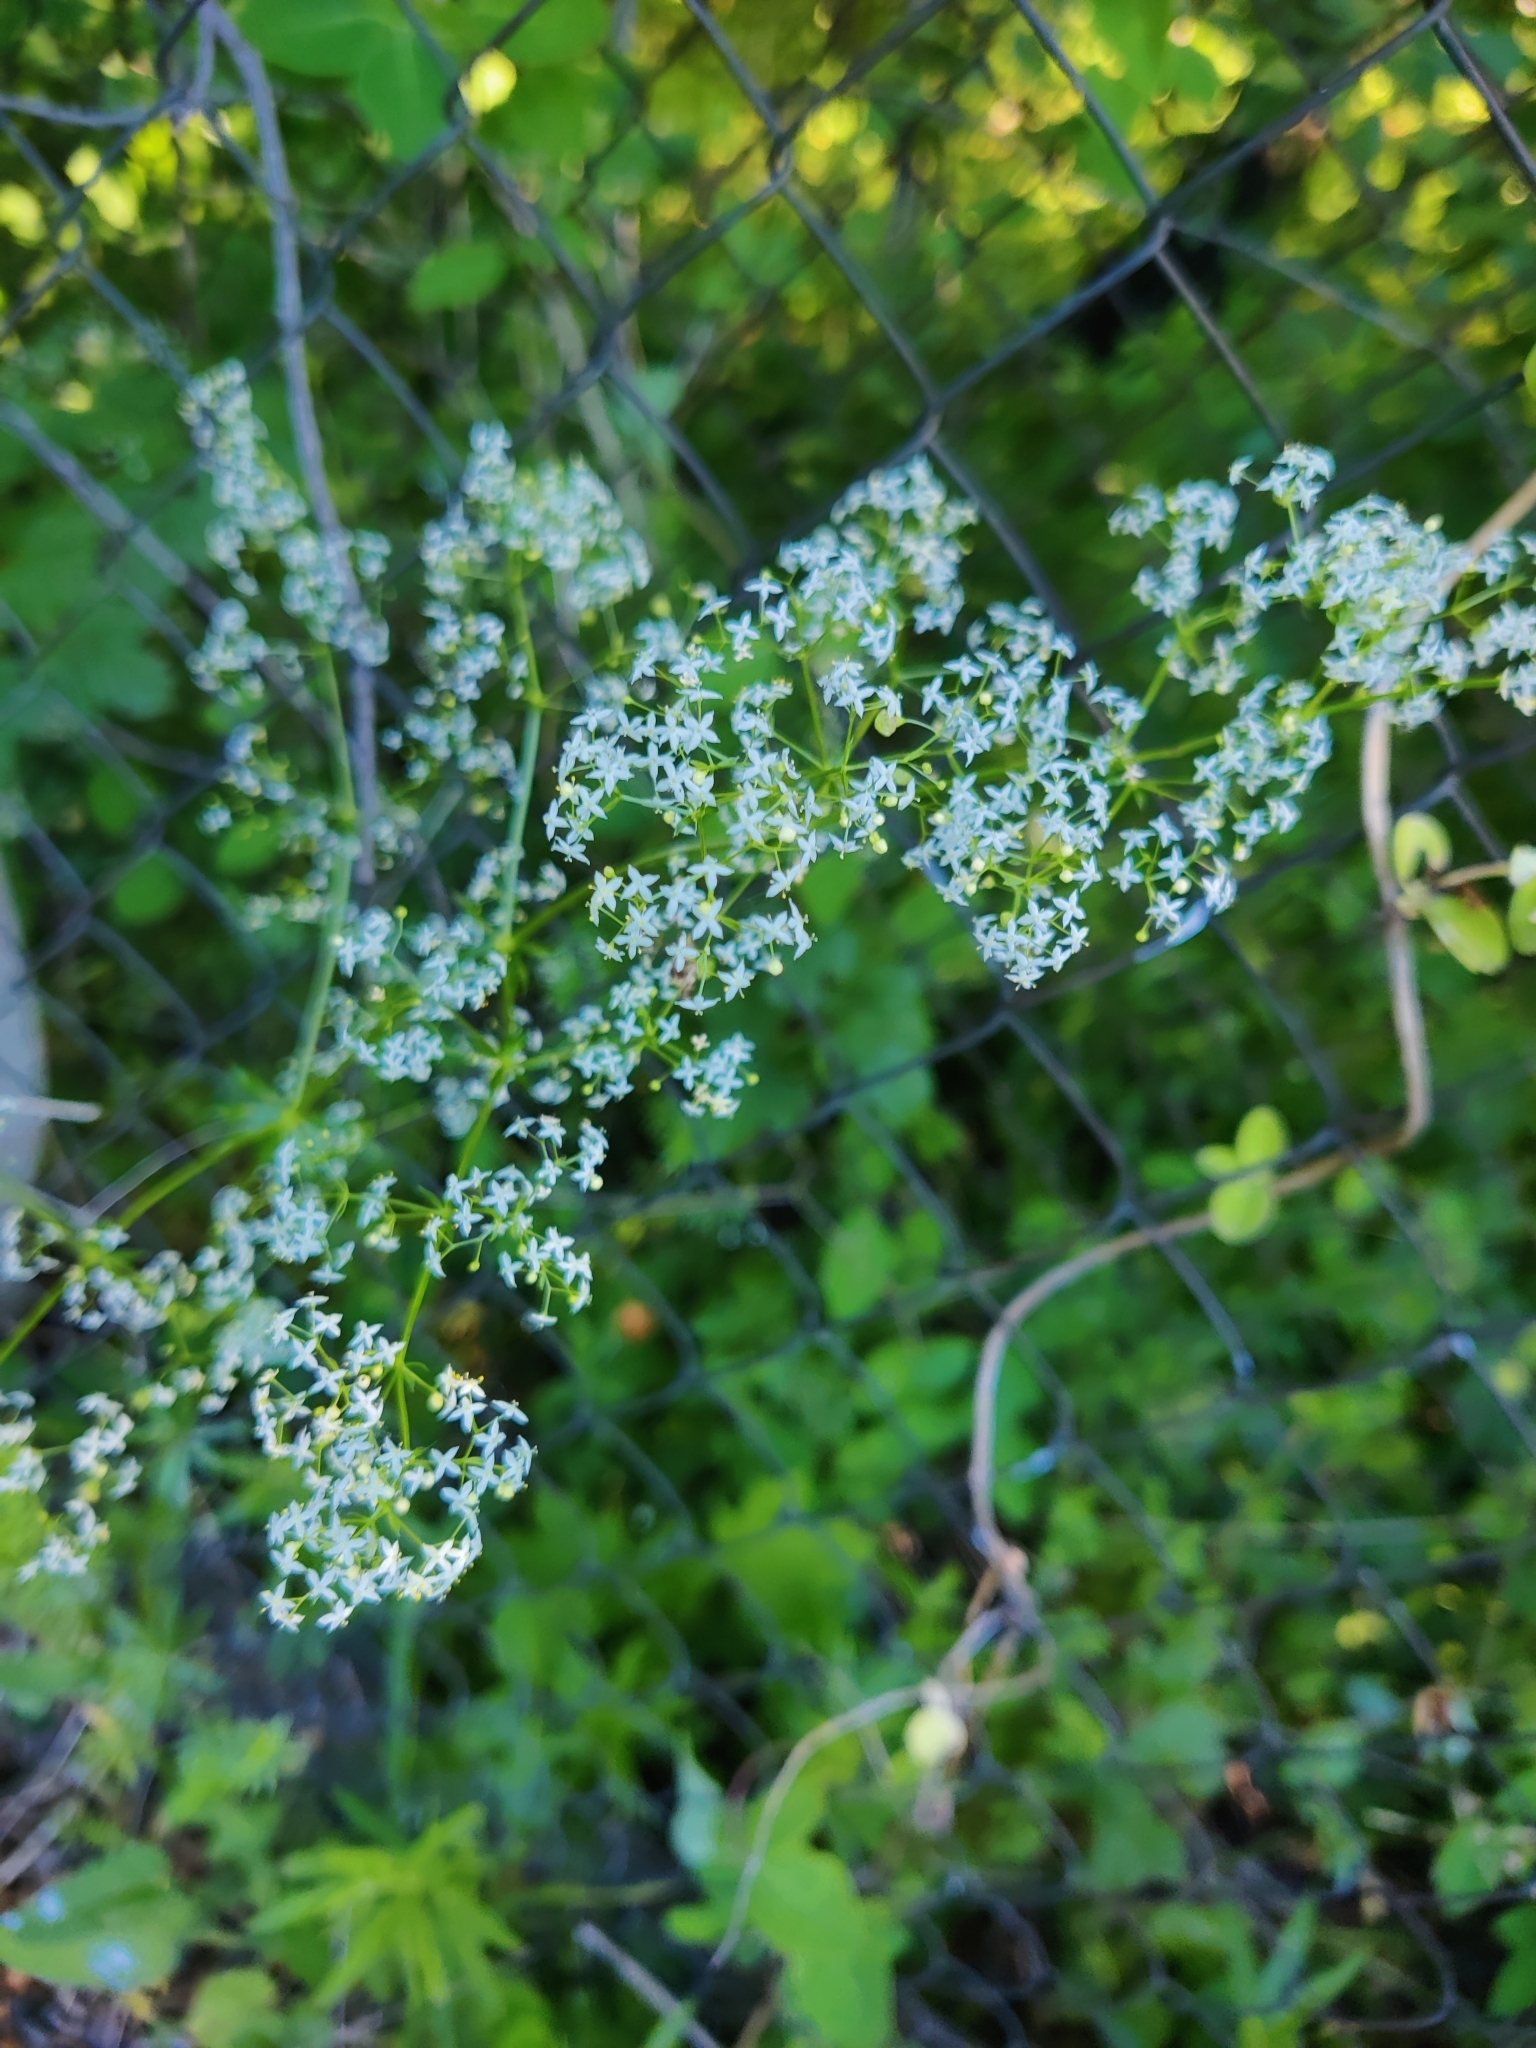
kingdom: Plantae
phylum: Tracheophyta
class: Magnoliopsida
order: Gentianales
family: Rubiaceae
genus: Galium
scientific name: Galium mollugo
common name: Hedge bedstraw
